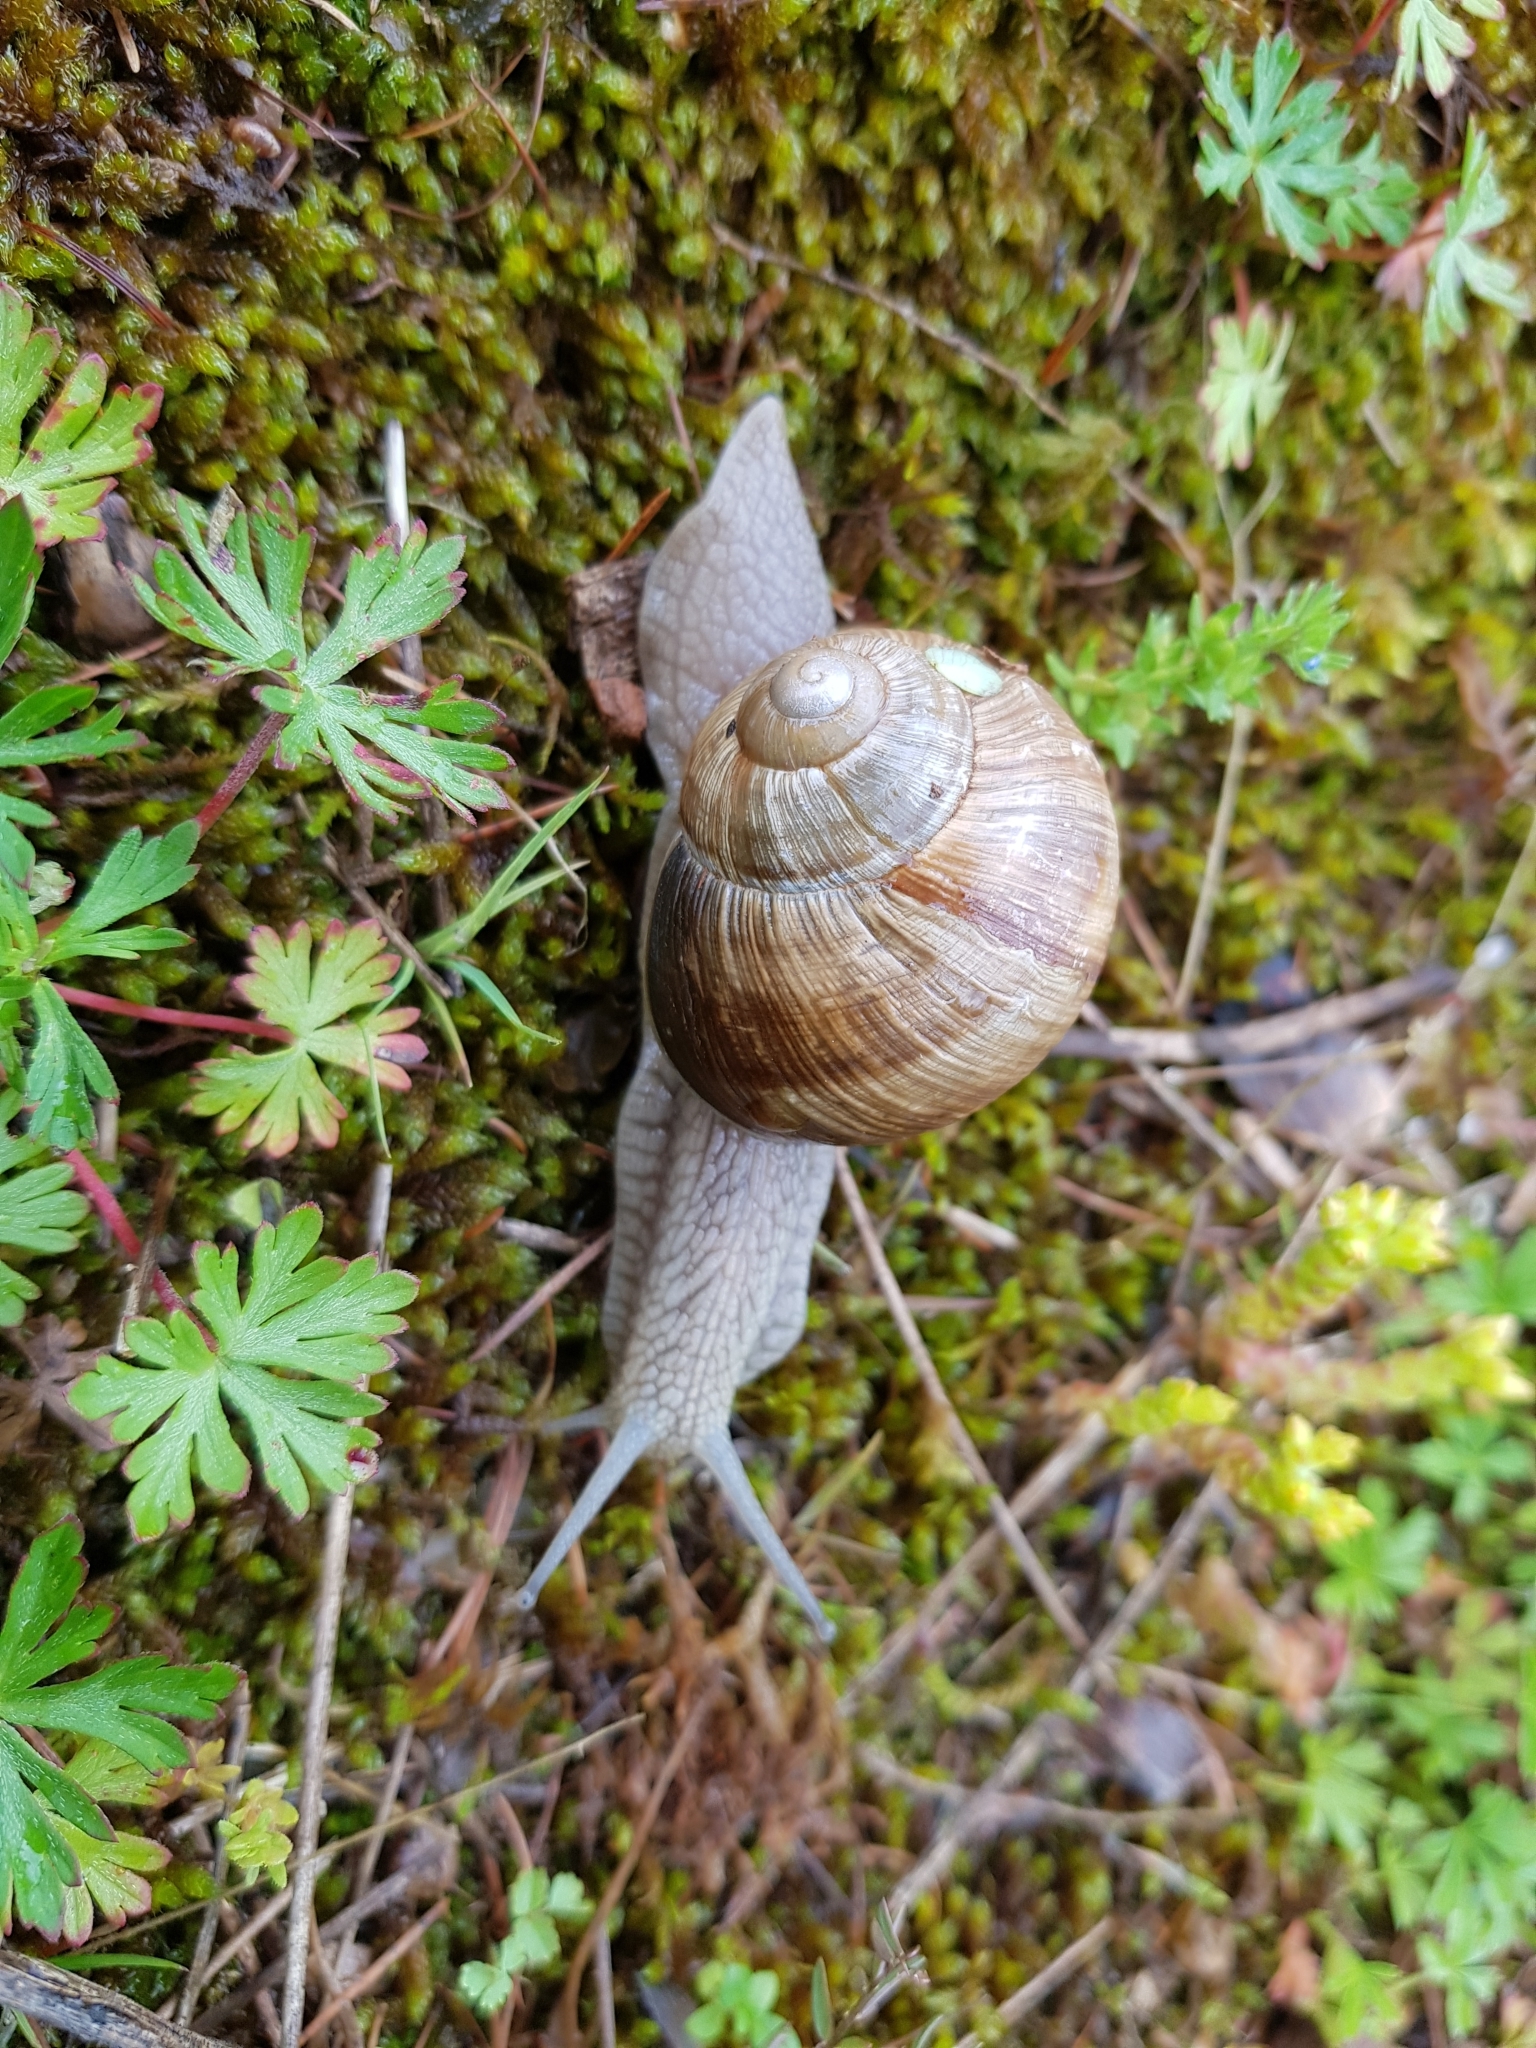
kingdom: Animalia
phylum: Mollusca
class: Gastropoda
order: Stylommatophora
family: Helicidae
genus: Helix
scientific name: Helix pomatia
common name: Roman snail
